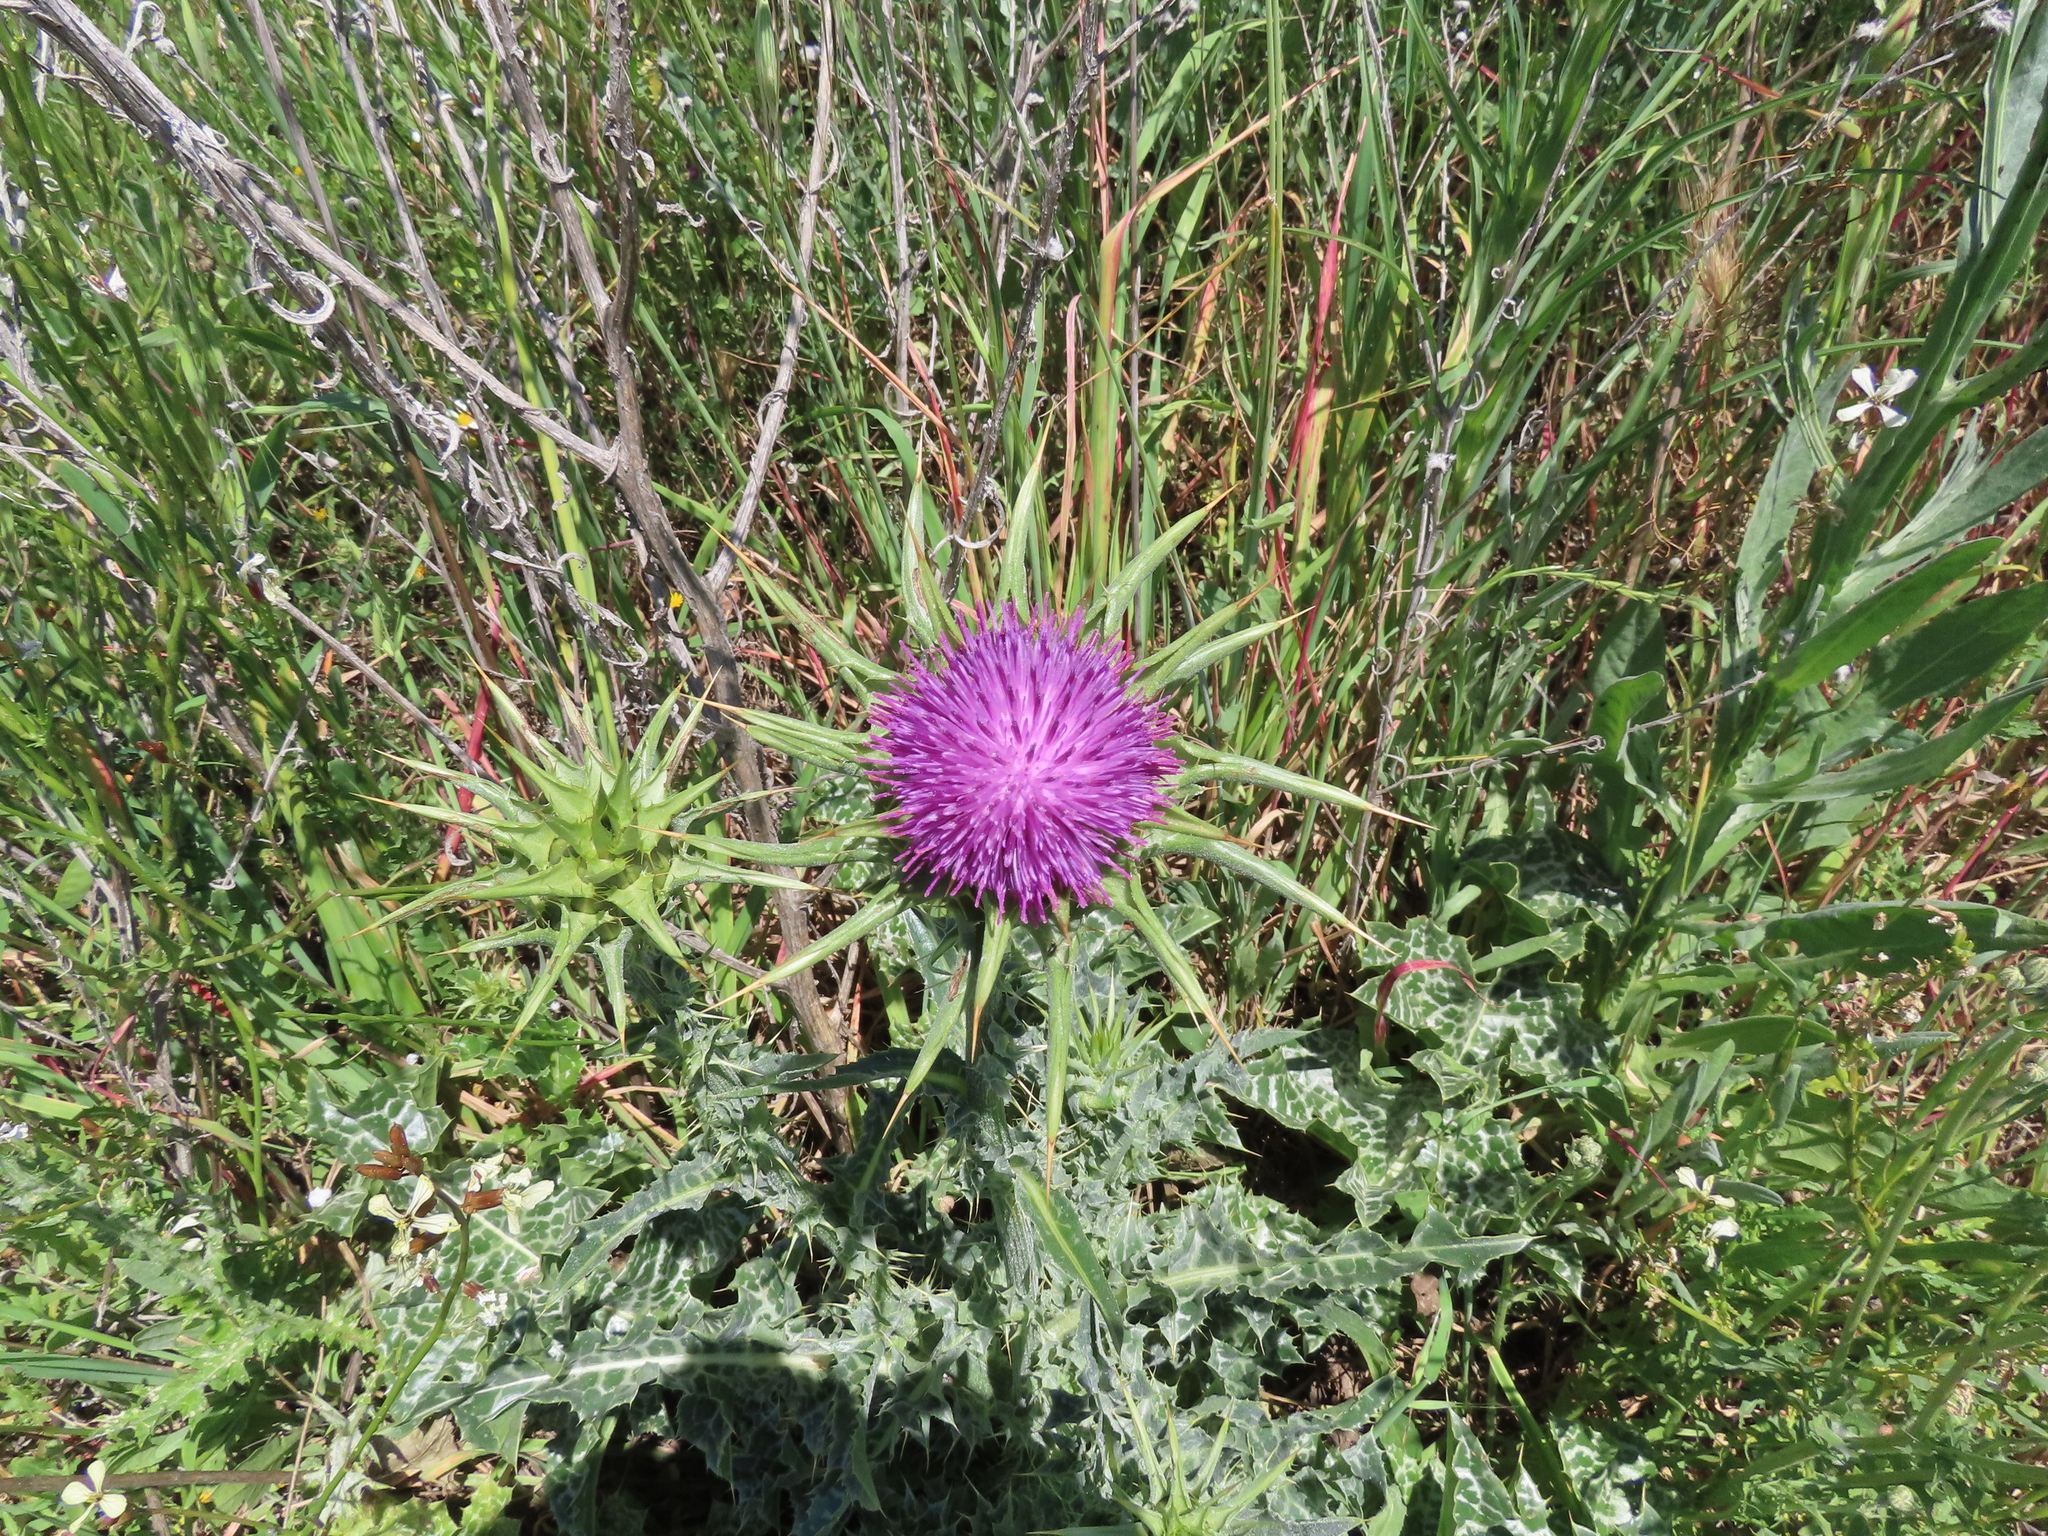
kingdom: Plantae
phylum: Tracheophyta
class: Magnoliopsida
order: Asterales
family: Asteraceae
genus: Silybum
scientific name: Silybum marianum
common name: Milk thistle
